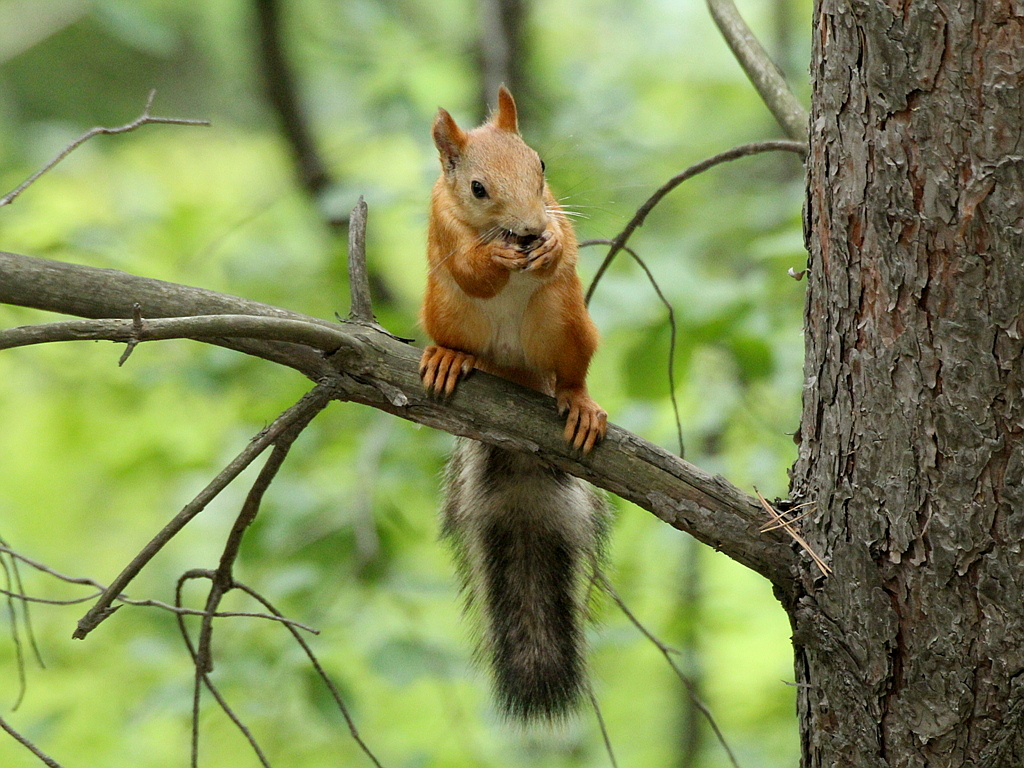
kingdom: Animalia
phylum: Chordata
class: Mammalia
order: Rodentia
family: Sciuridae
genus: Sciurus
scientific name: Sciurus vulgaris
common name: Eurasian red squirrel
